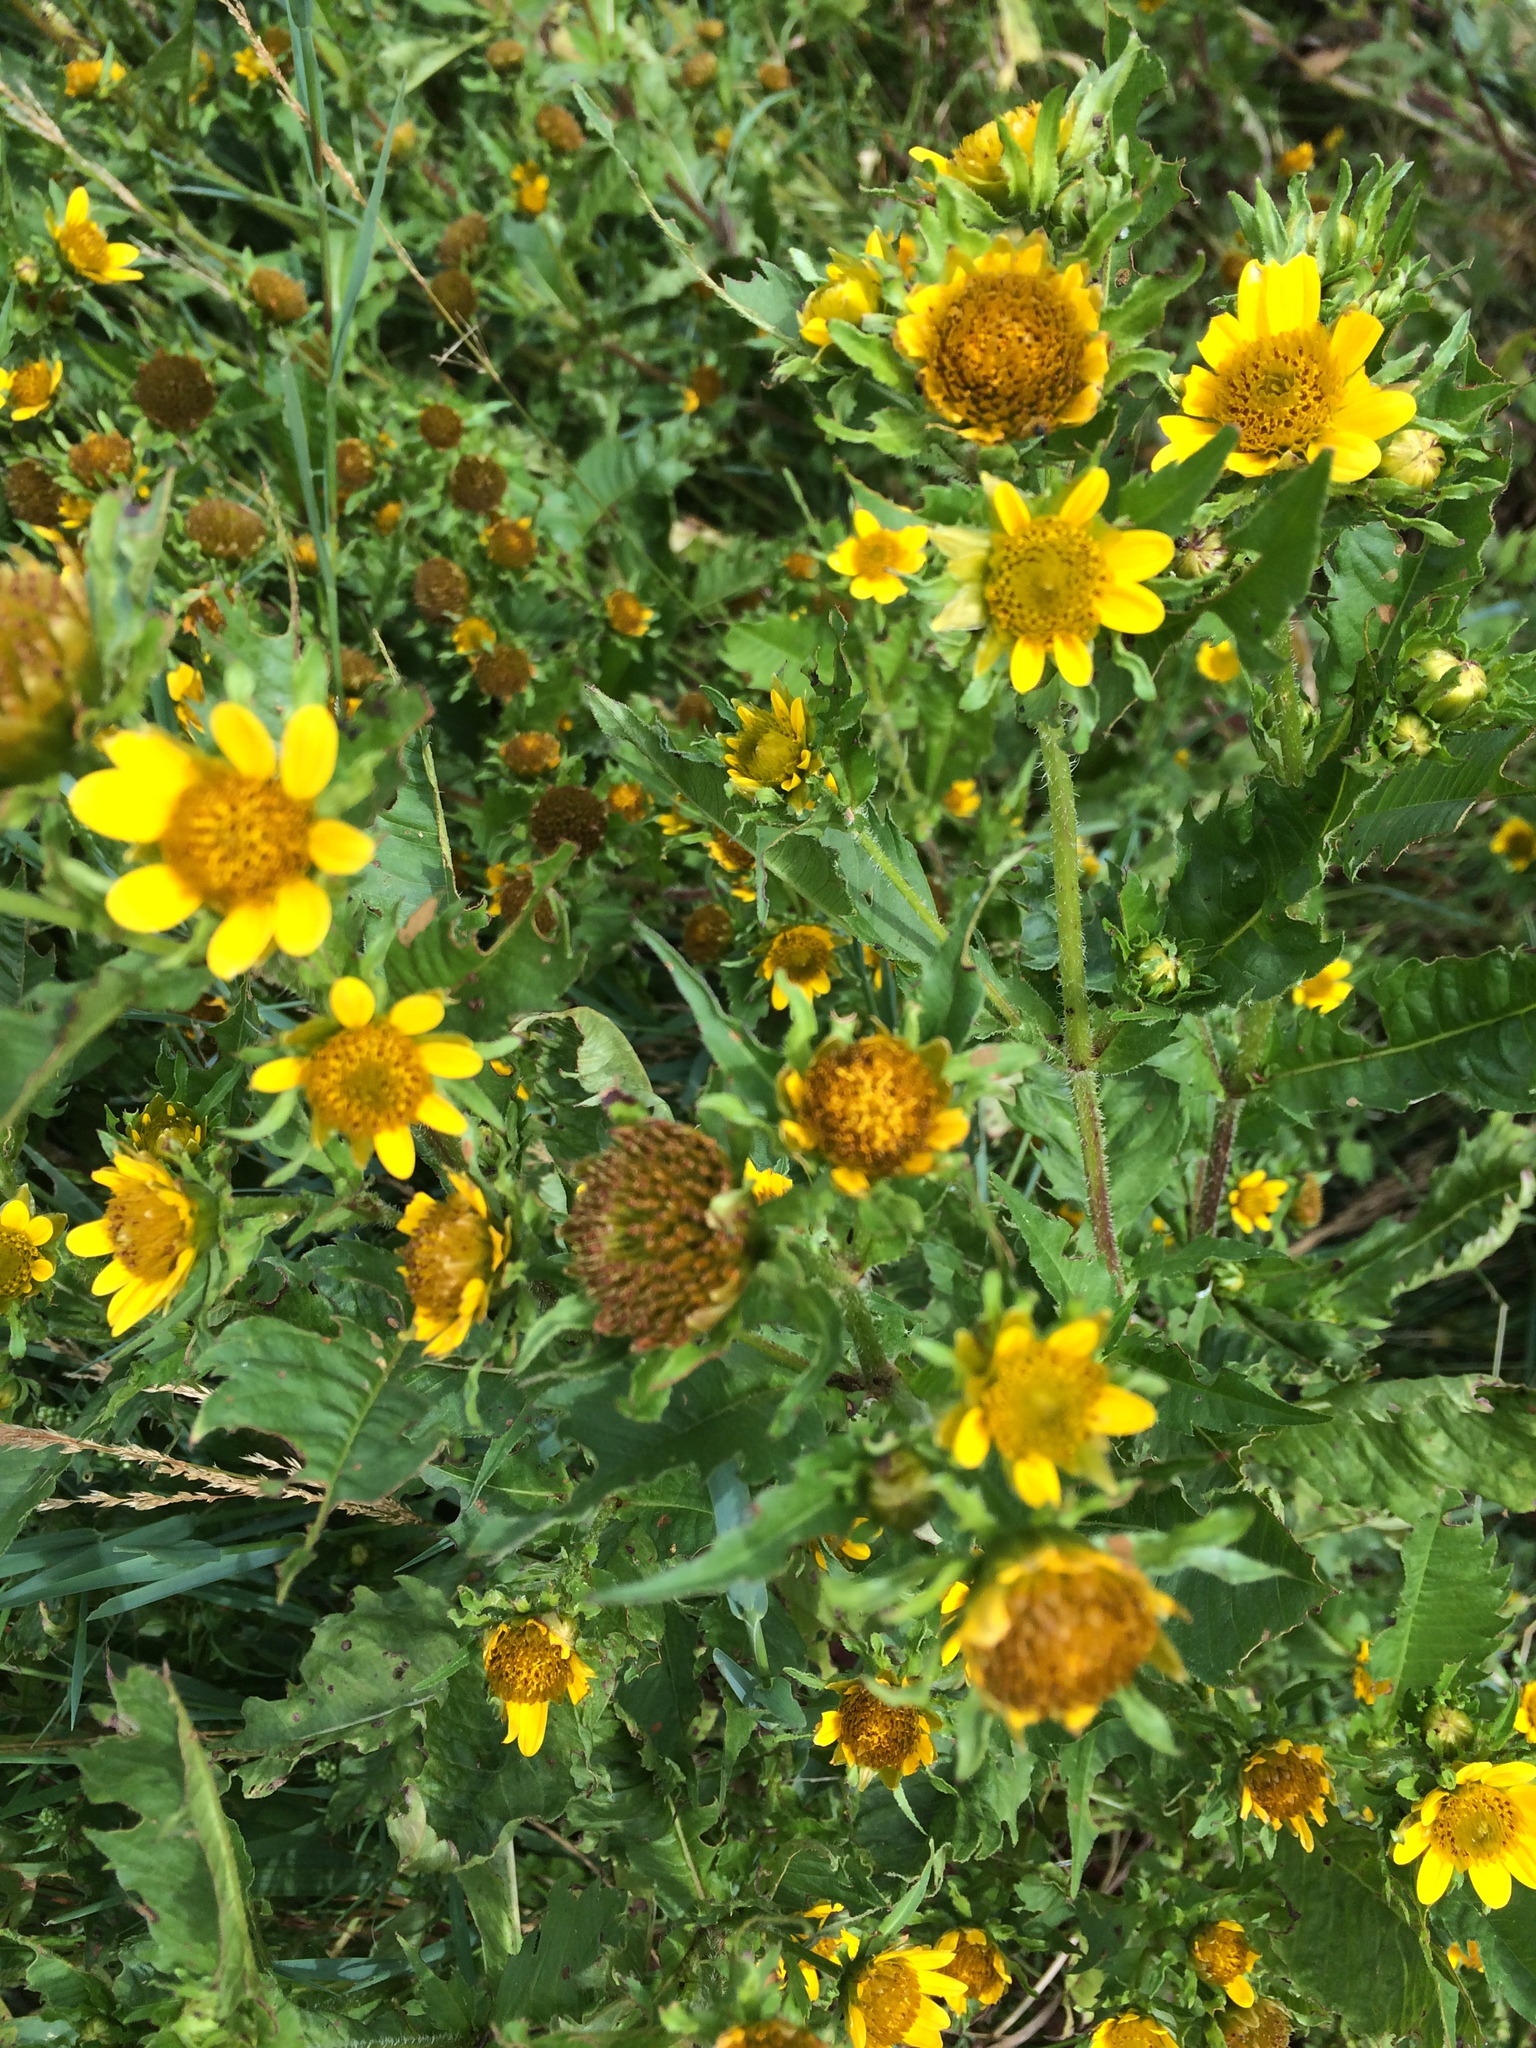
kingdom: Plantae
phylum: Tracheophyta
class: Magnoliopsida
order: Asterales
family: Asteraceae
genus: Bidens
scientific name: Bidens cernua
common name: Nodding bur-marigold
